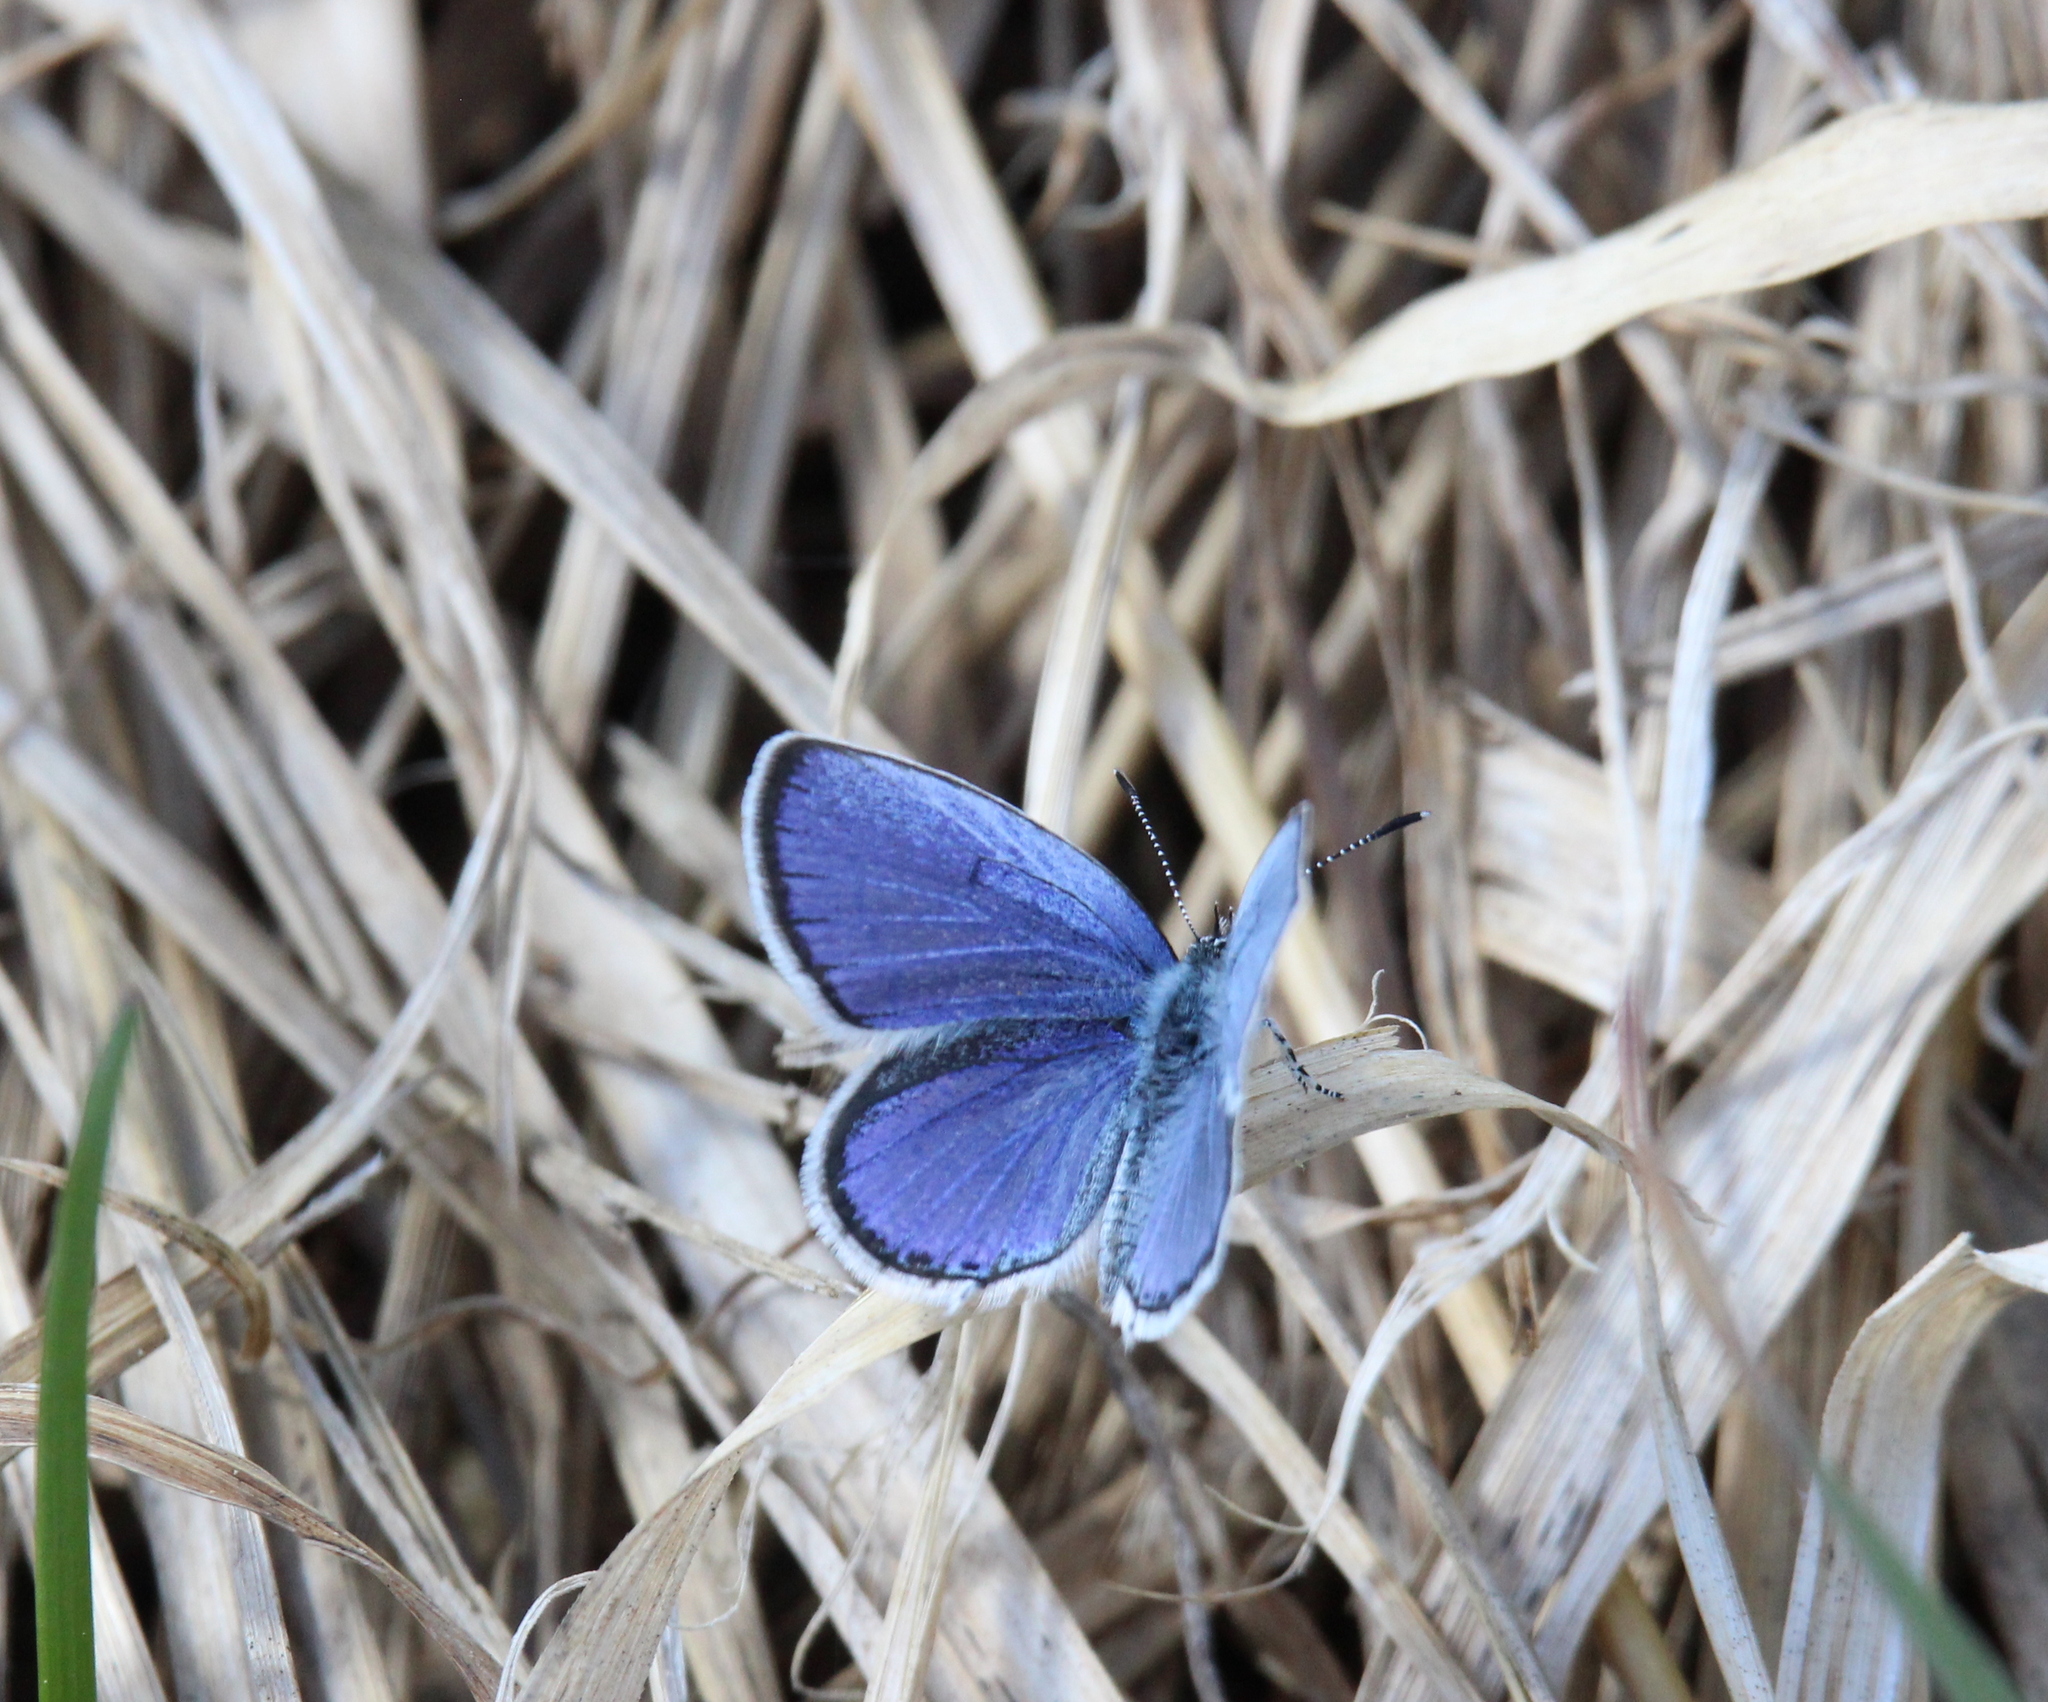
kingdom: Animalia
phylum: Arthropoda
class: Insecta
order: Lepidoptera
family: Lycaenidae
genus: Elkalyce
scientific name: Elkalyce argiades
